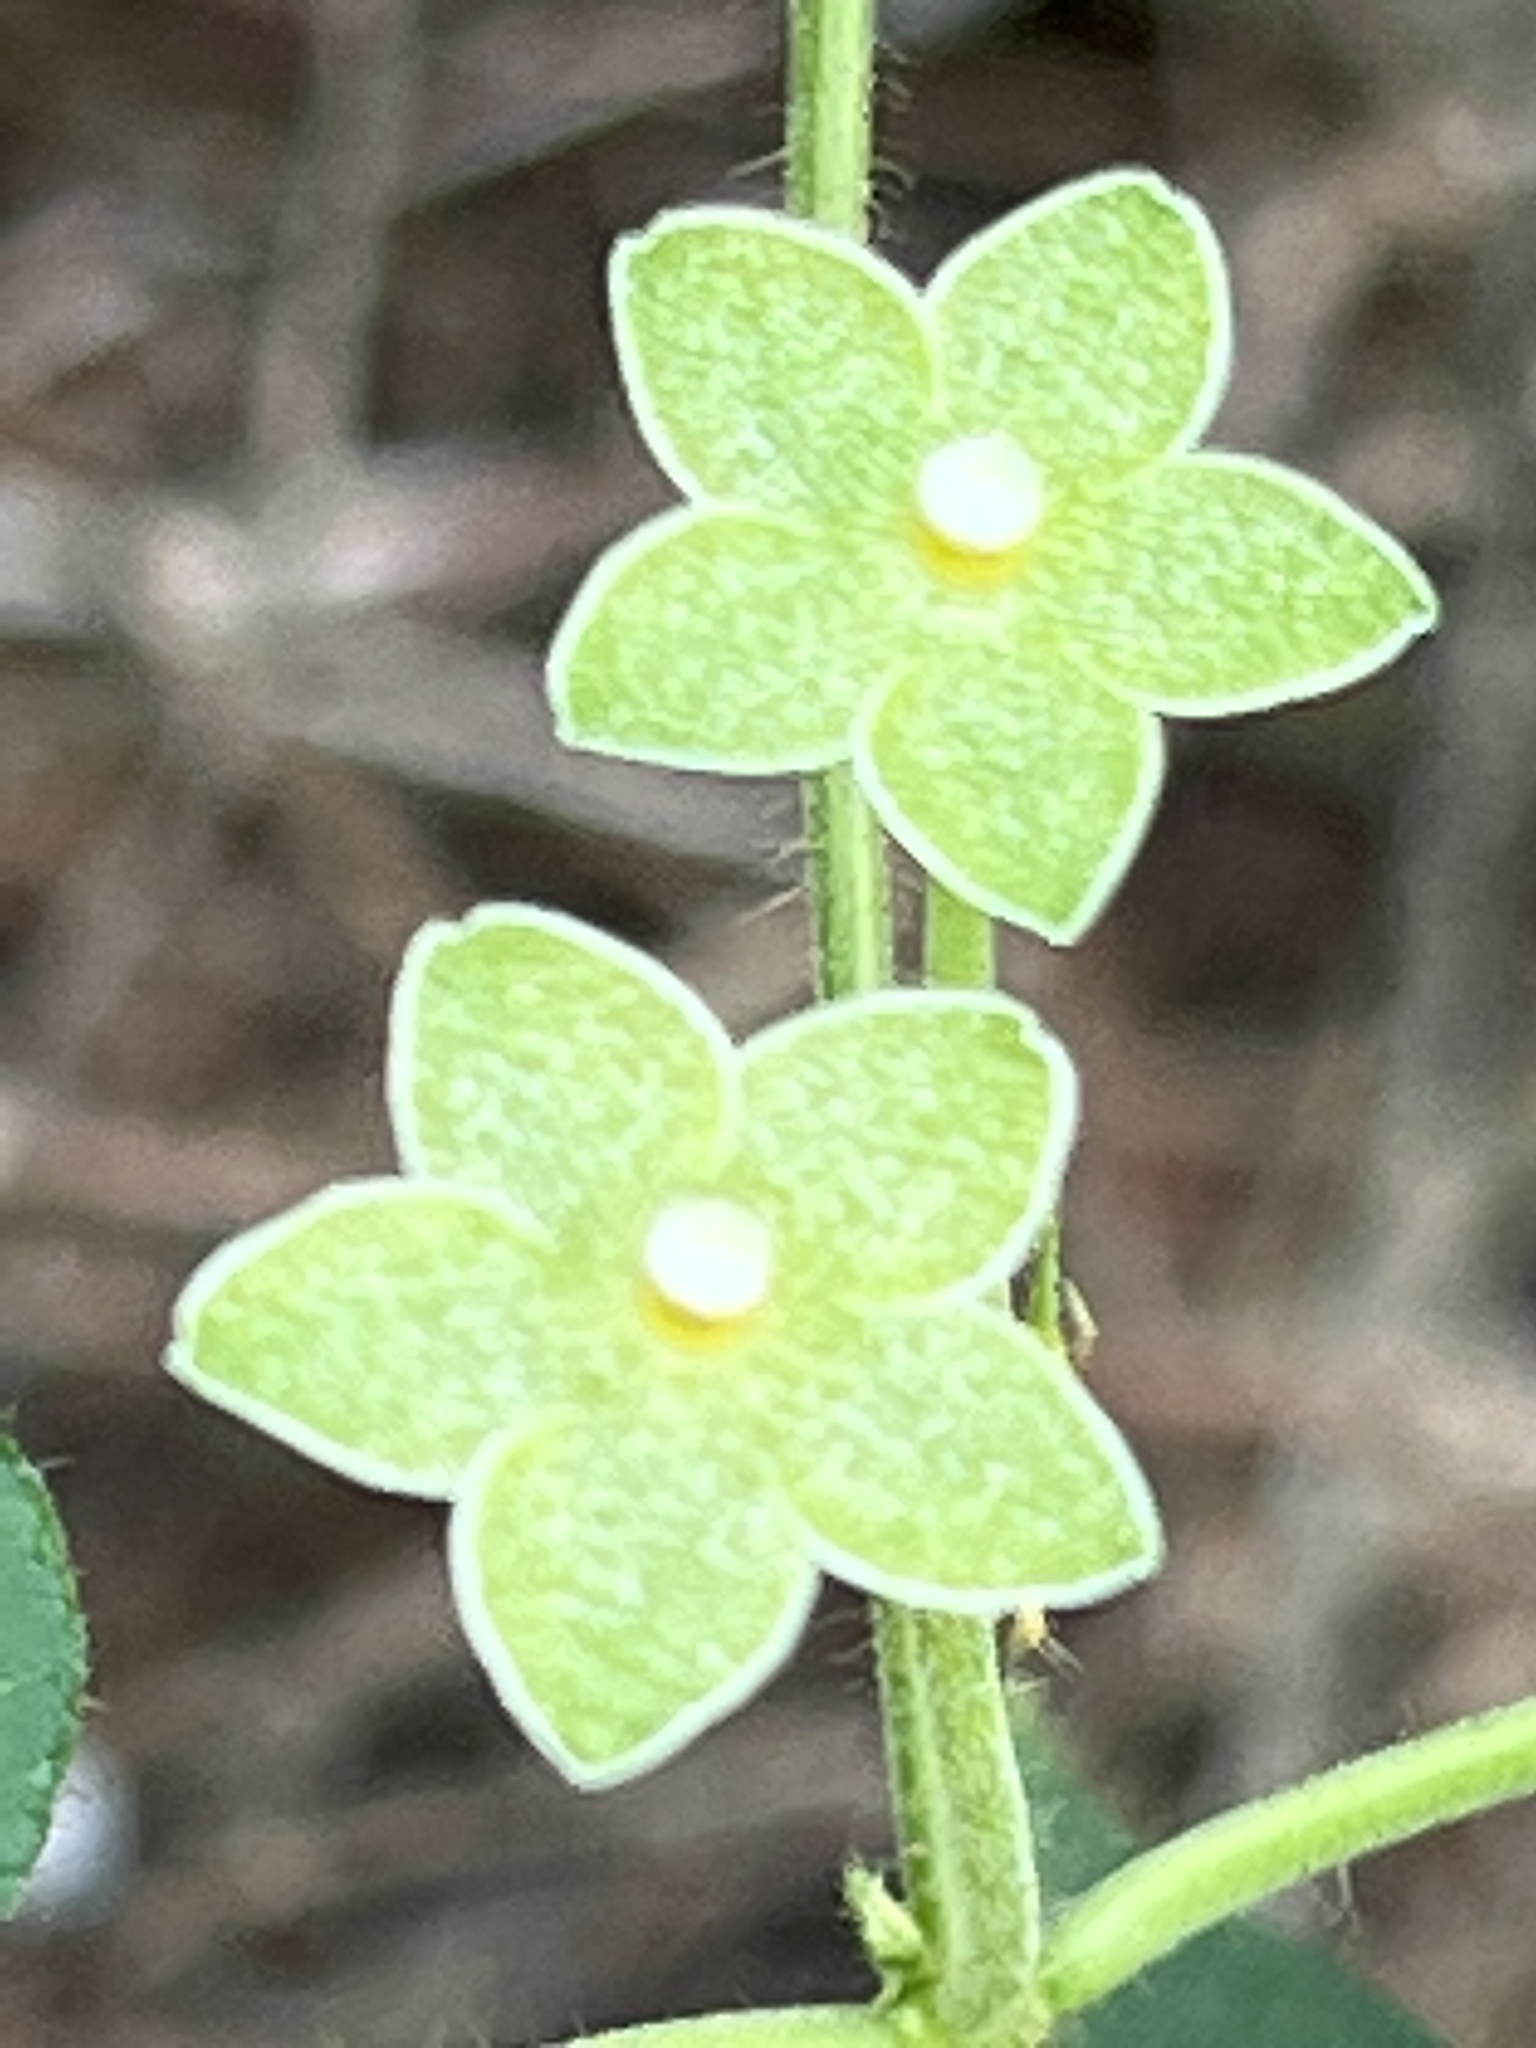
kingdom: Plantae
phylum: Tracheophyta
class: Magnoliopsida
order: Gentianales
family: Apocynaceae
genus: Dictyanthus
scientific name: Dictyanthus reticulatus
